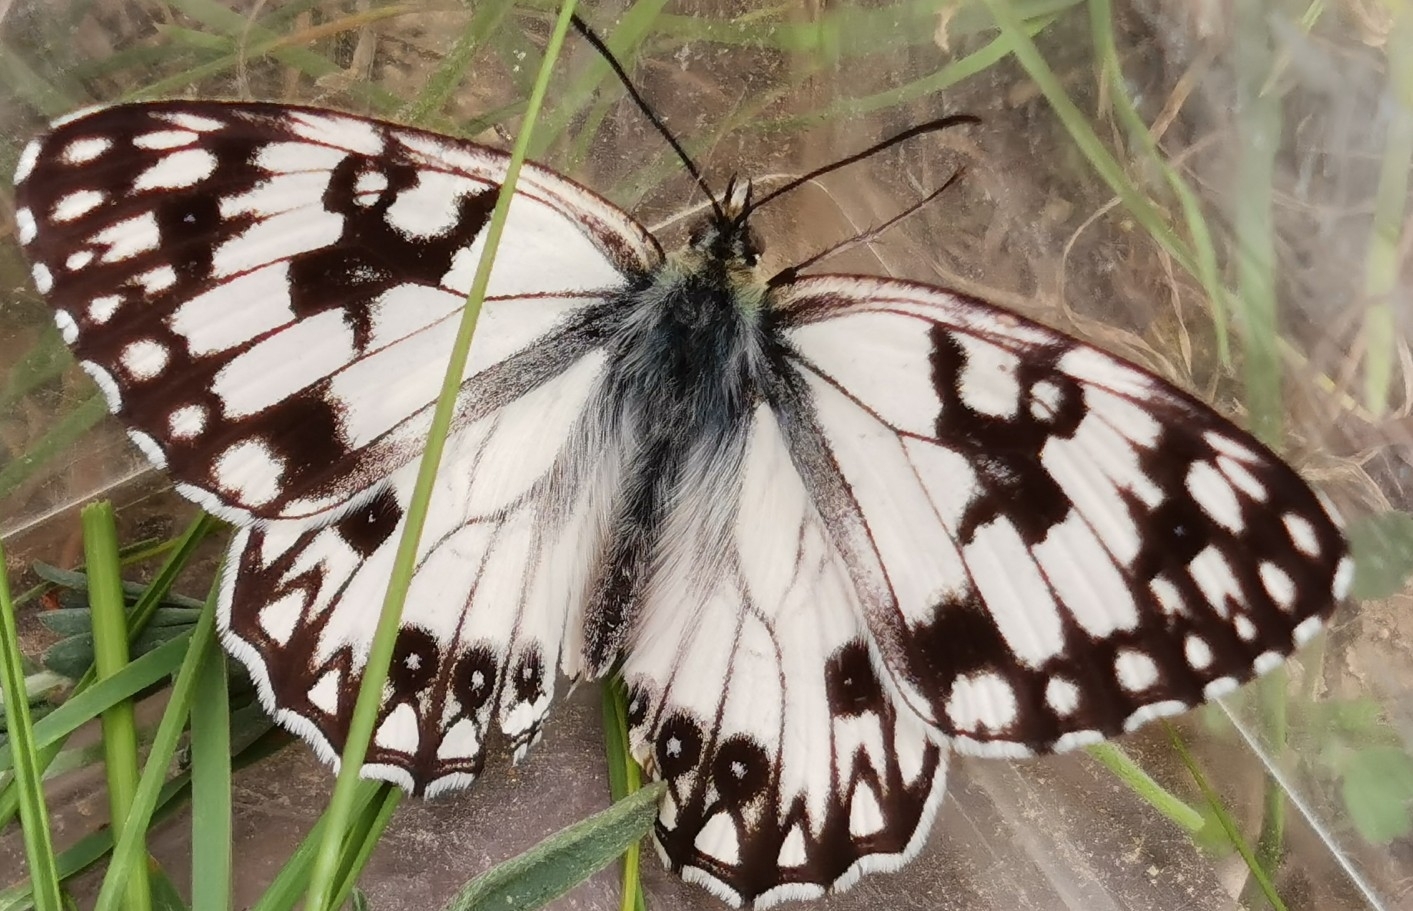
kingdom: Animalia
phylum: Arthropoda
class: Insecta
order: Lepidoptera
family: Nymphalidae
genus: Melanargia
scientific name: Melanargia lachesis
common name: Iberian marbled white
